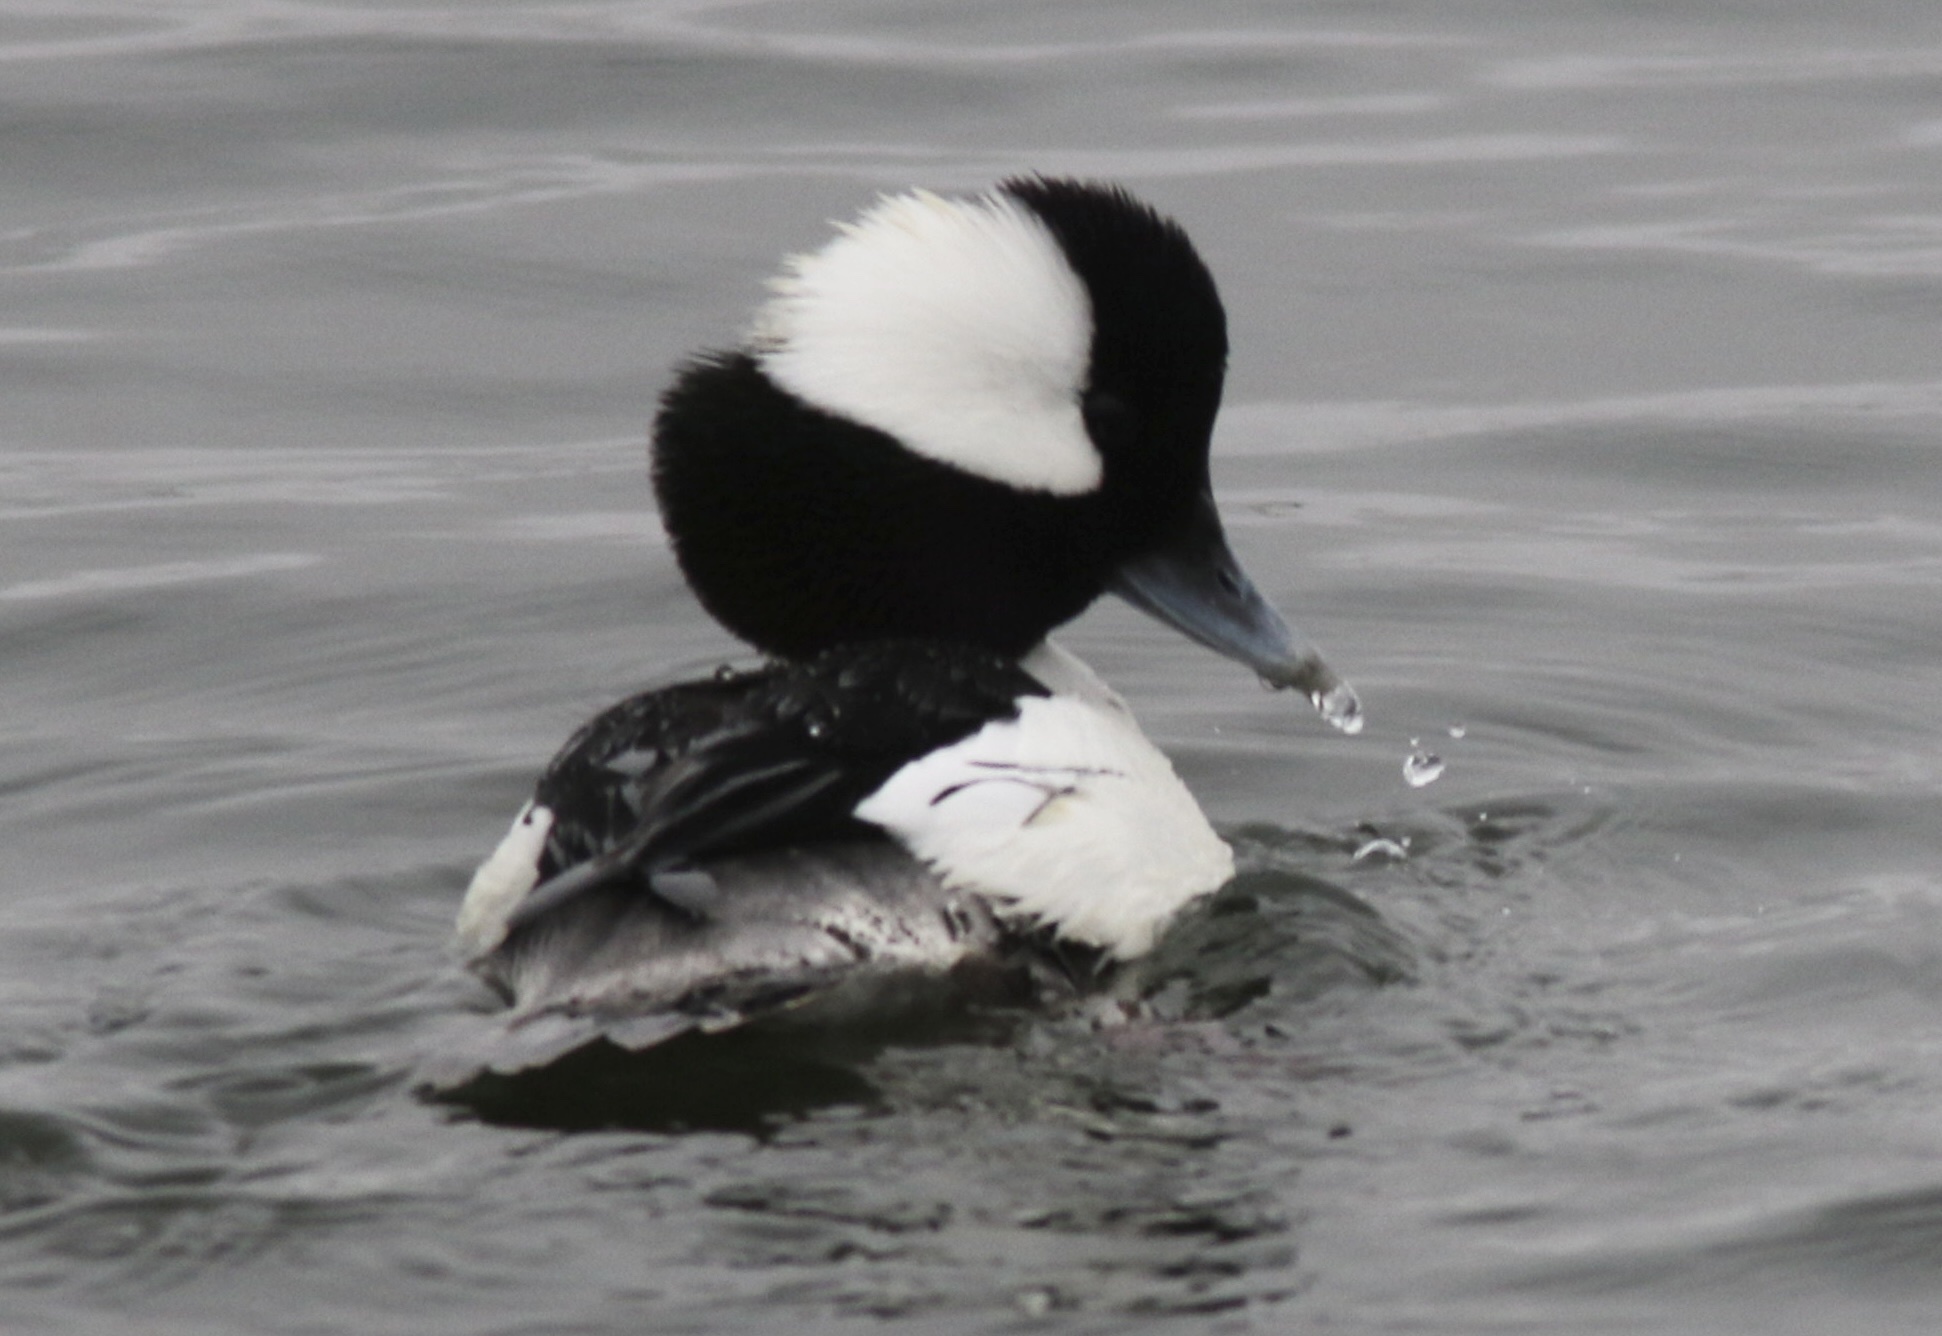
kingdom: Animalia
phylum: Chordata
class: Aves
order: Anseriformes
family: Anatidae
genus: Bucephala
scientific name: Bucephala albeola
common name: Bufflehead
